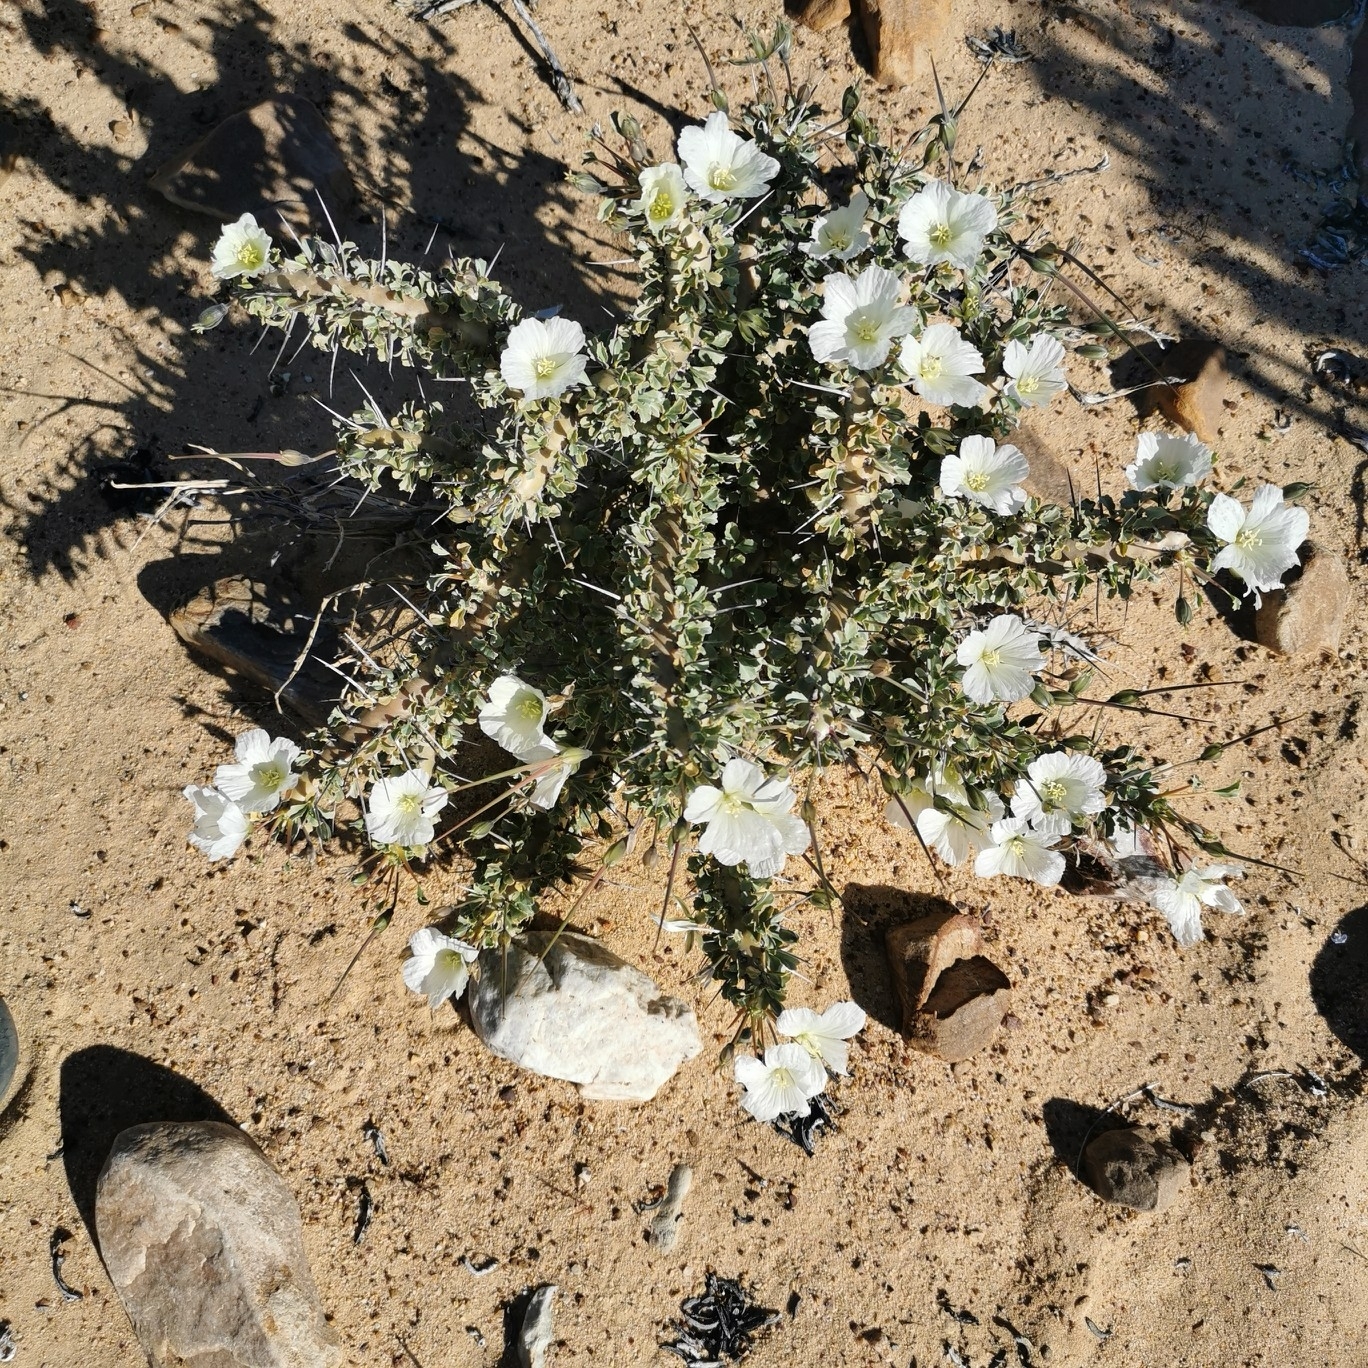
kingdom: Plantae
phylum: Tracheophyta
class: Magnoliopsida
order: Geraniales
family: Geraniaceae
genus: Monsonia
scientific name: Monsonia crassicaulis
